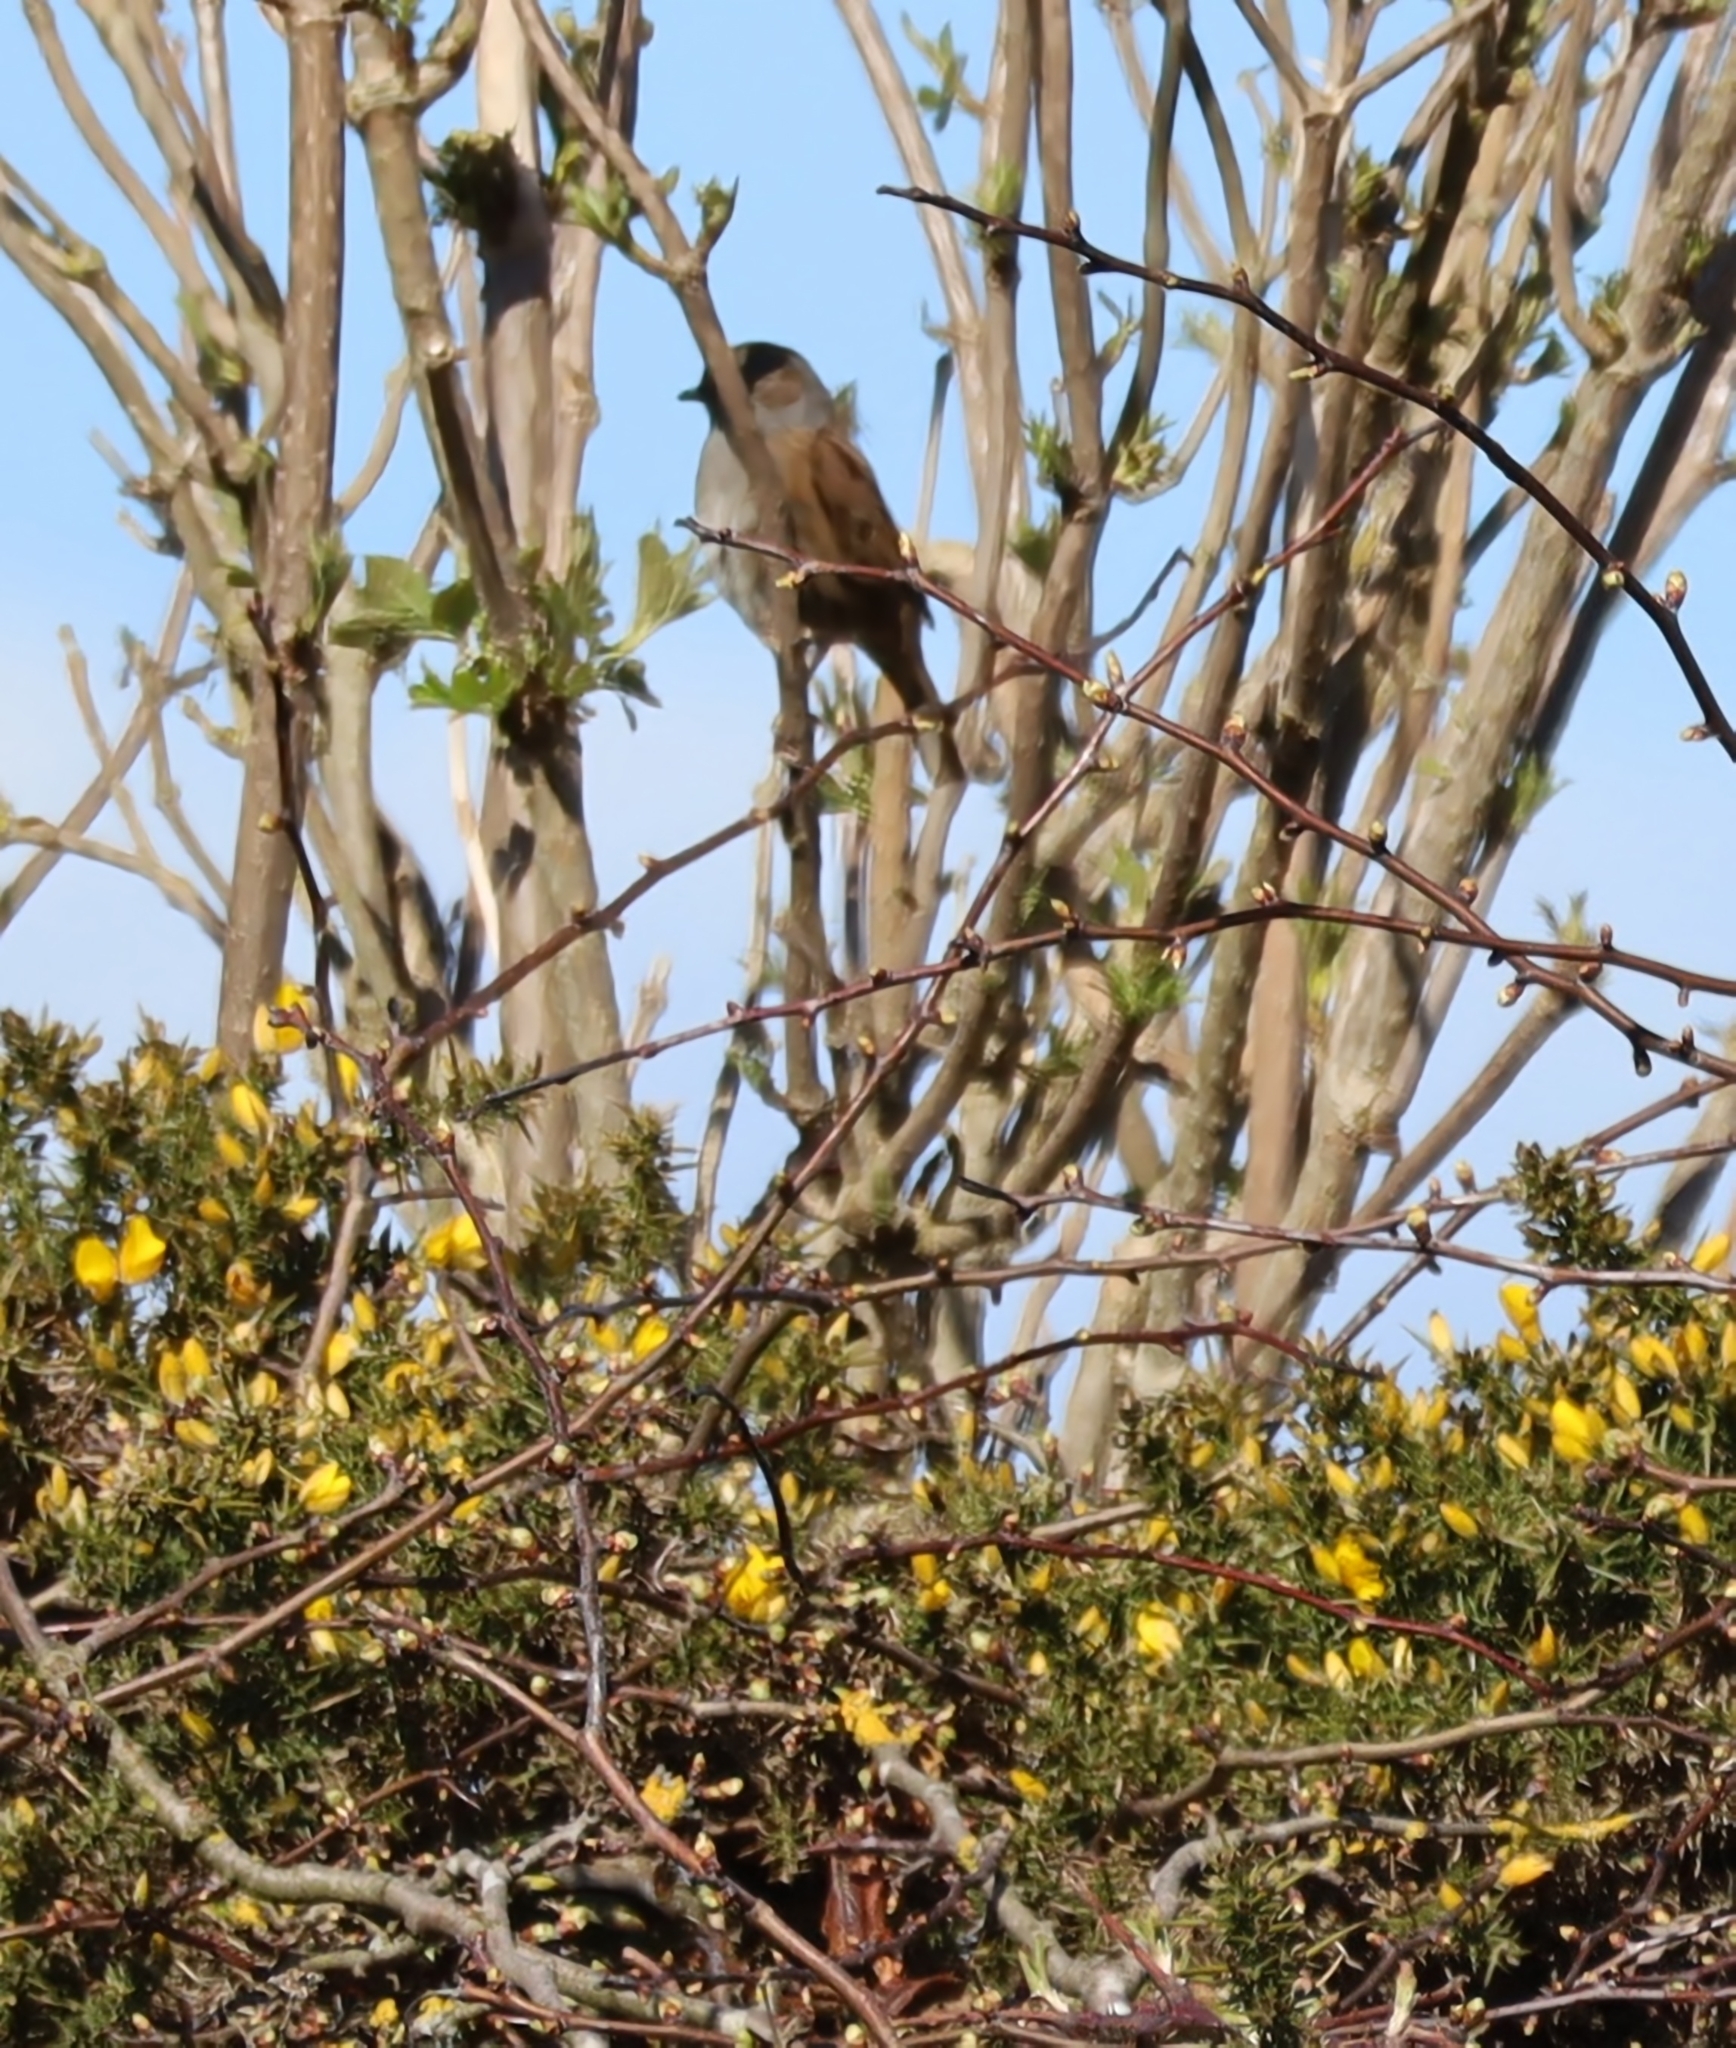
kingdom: Animalia
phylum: Chordata
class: Aves
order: Passeriformes
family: Prunellidae
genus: Prunella
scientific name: Prunella modularis
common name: Dunnock
